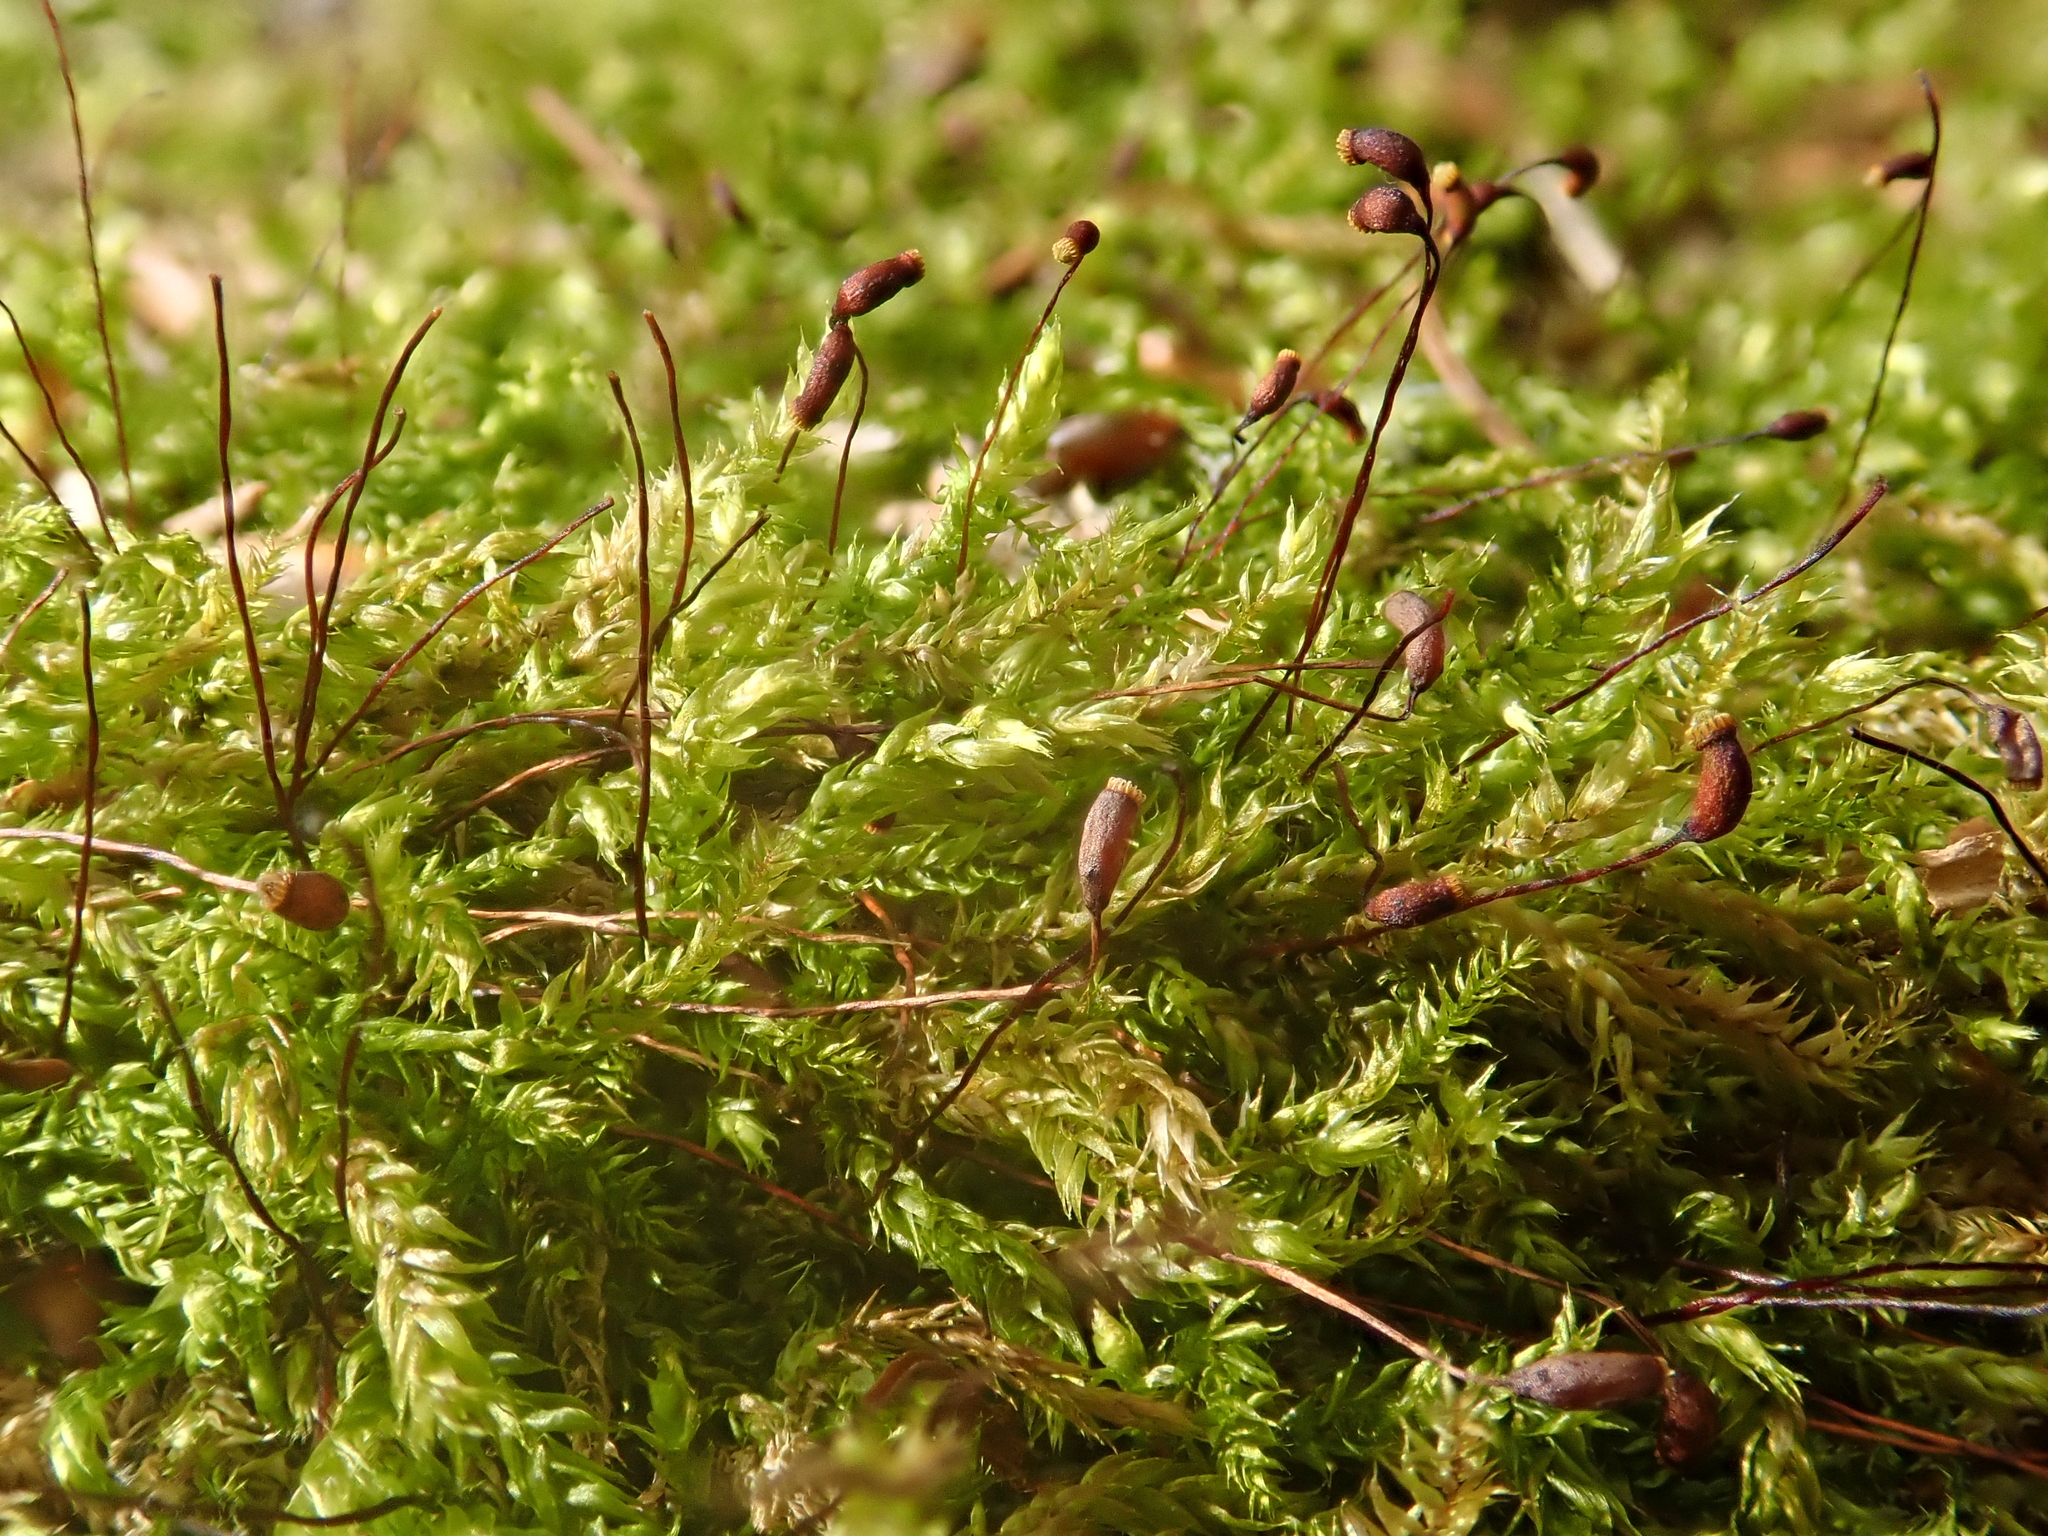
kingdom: Plantae
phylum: Bryophyta
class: Bryopsida
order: Hypnales
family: Brachytheciaceae
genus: Sciuro-hypnum
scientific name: Sciuro-hypnum plumosum
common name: Rusty feather-moss
